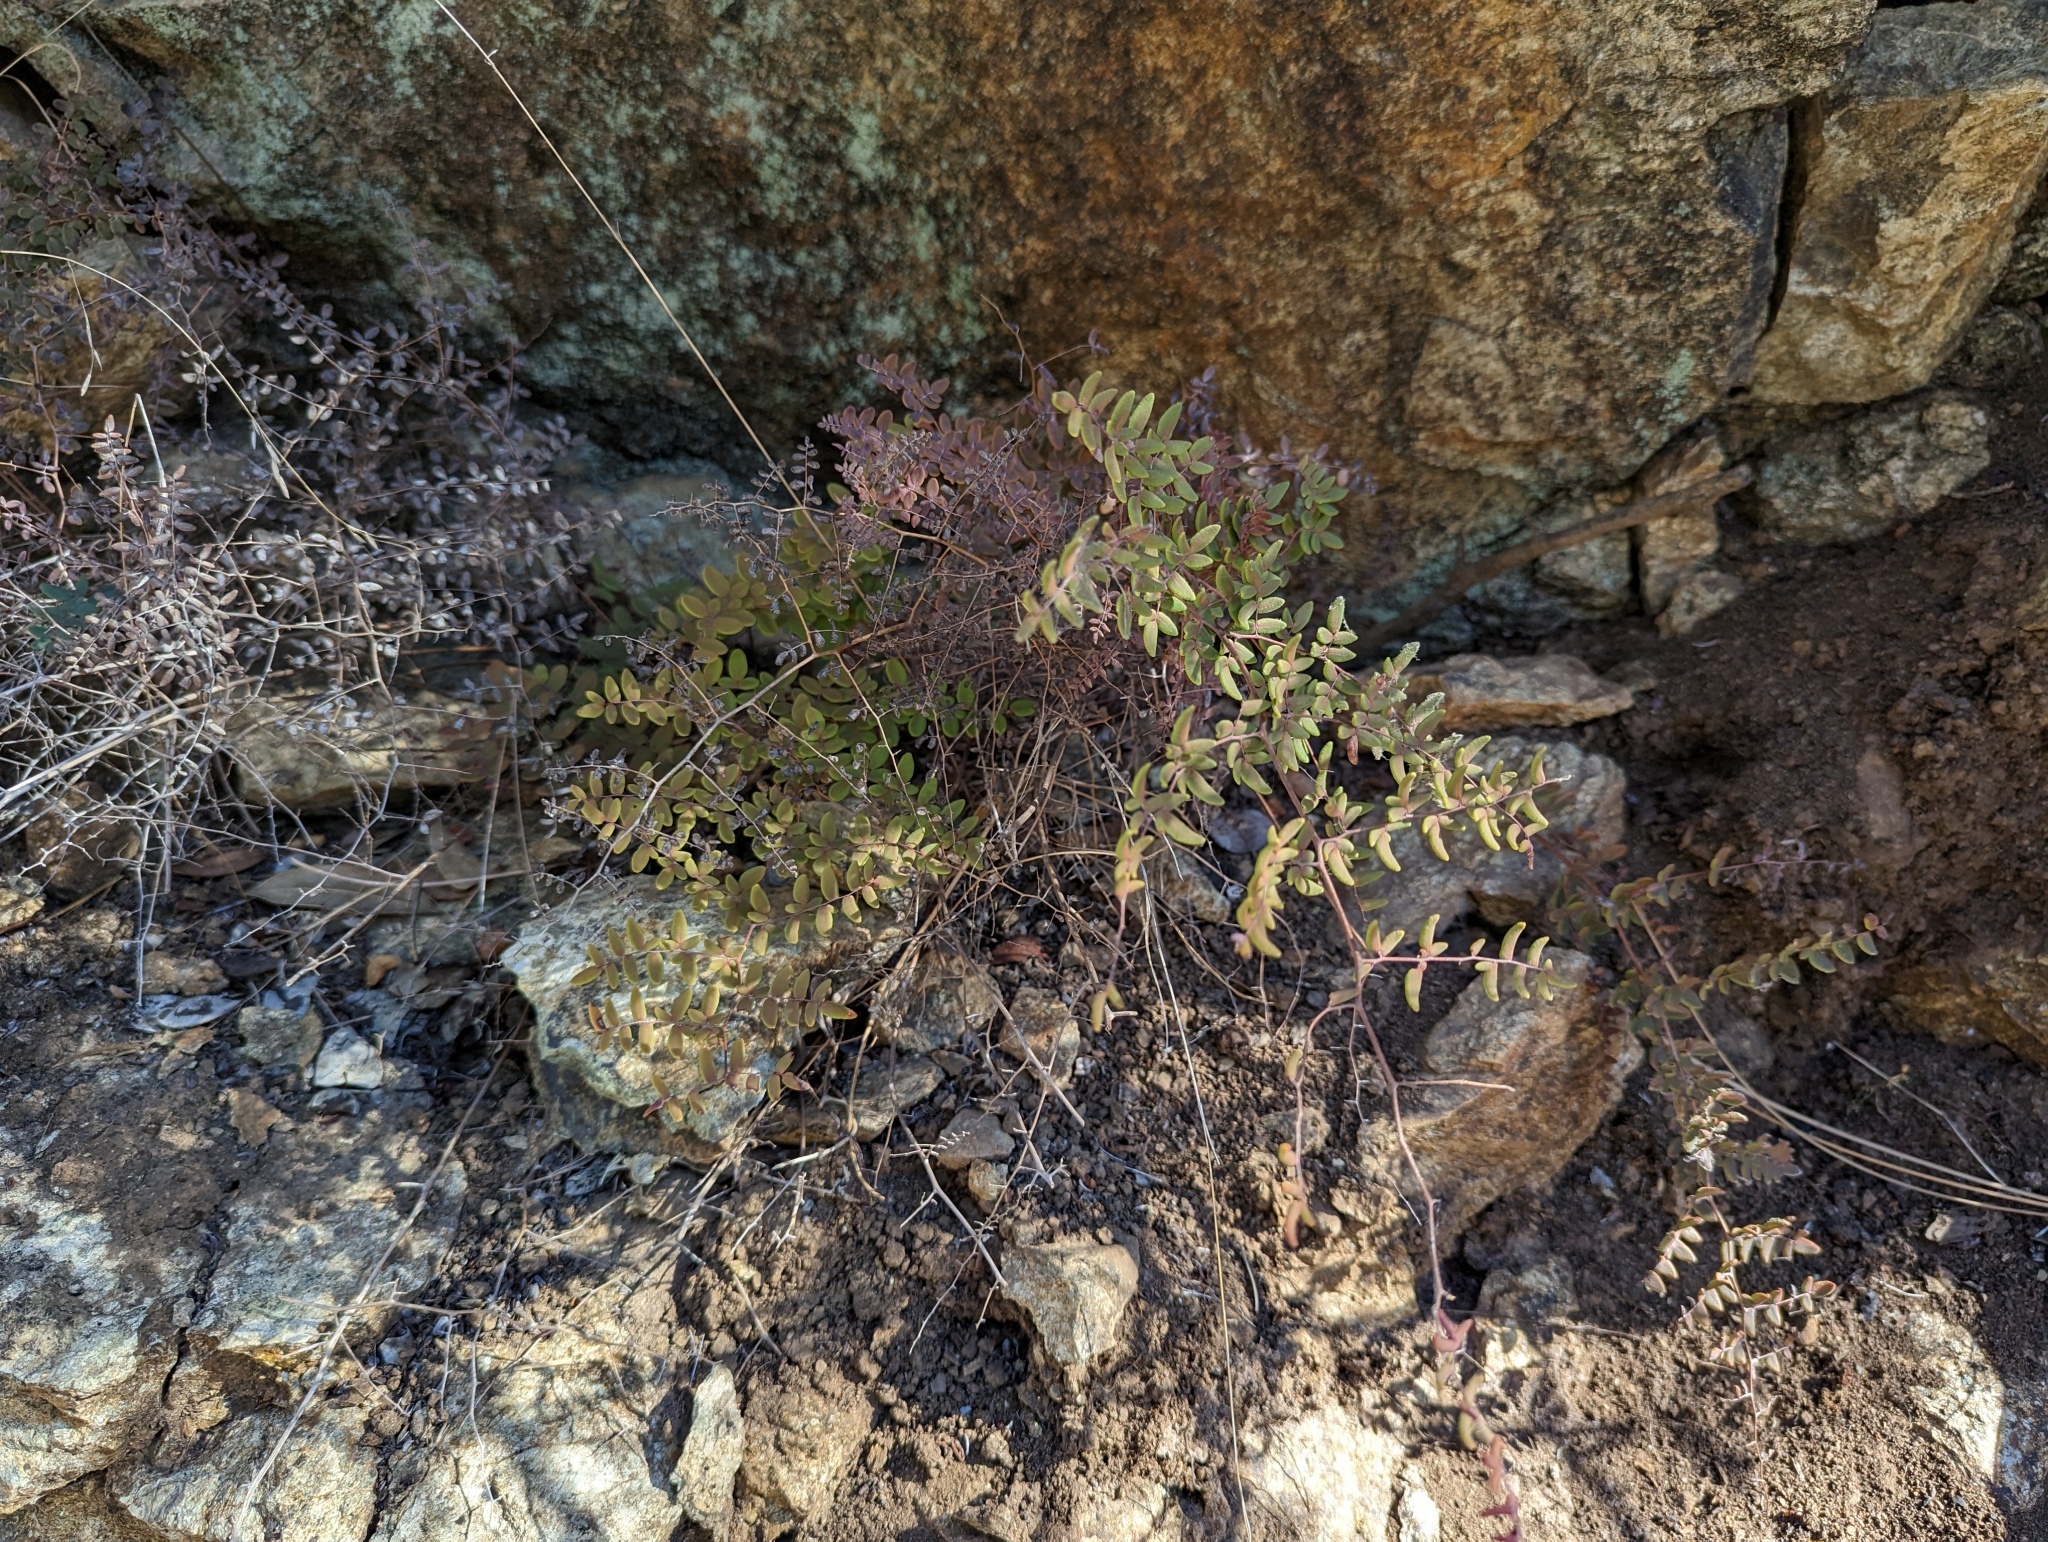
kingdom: Plantae
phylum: Tracheophyta
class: Polypodiopsida
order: Polypodiales
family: Pteridaceae
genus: Pellaea
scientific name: Pellaea andromedifolia
